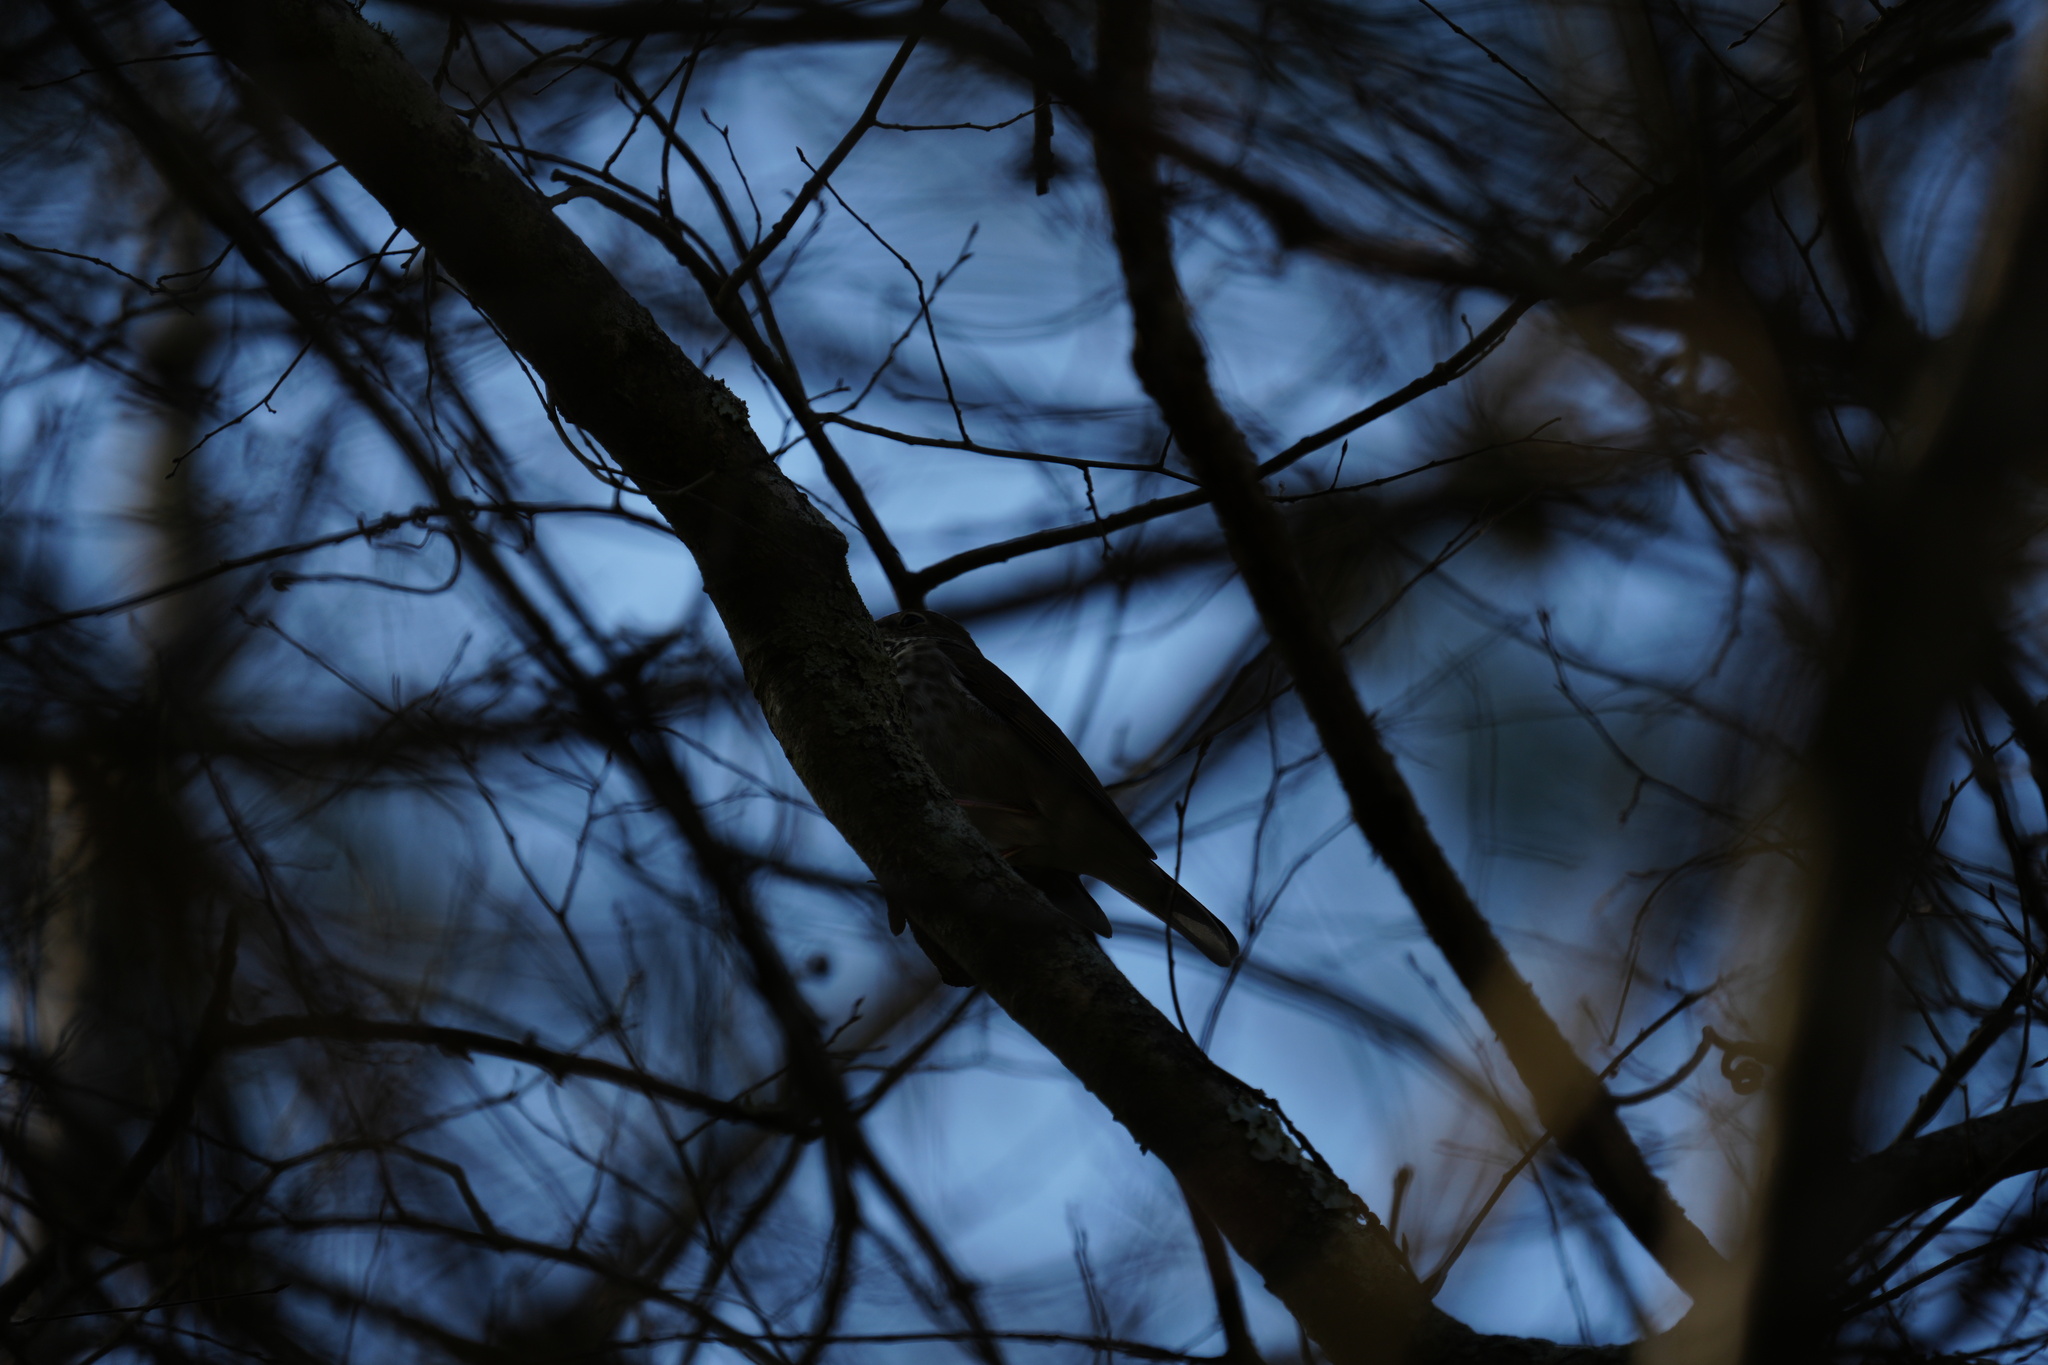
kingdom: Animalia
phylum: Chordata
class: Aves
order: Passeriformes
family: Turdidae
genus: Catharus
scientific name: Catharus guttatus
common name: Hermit thrush
